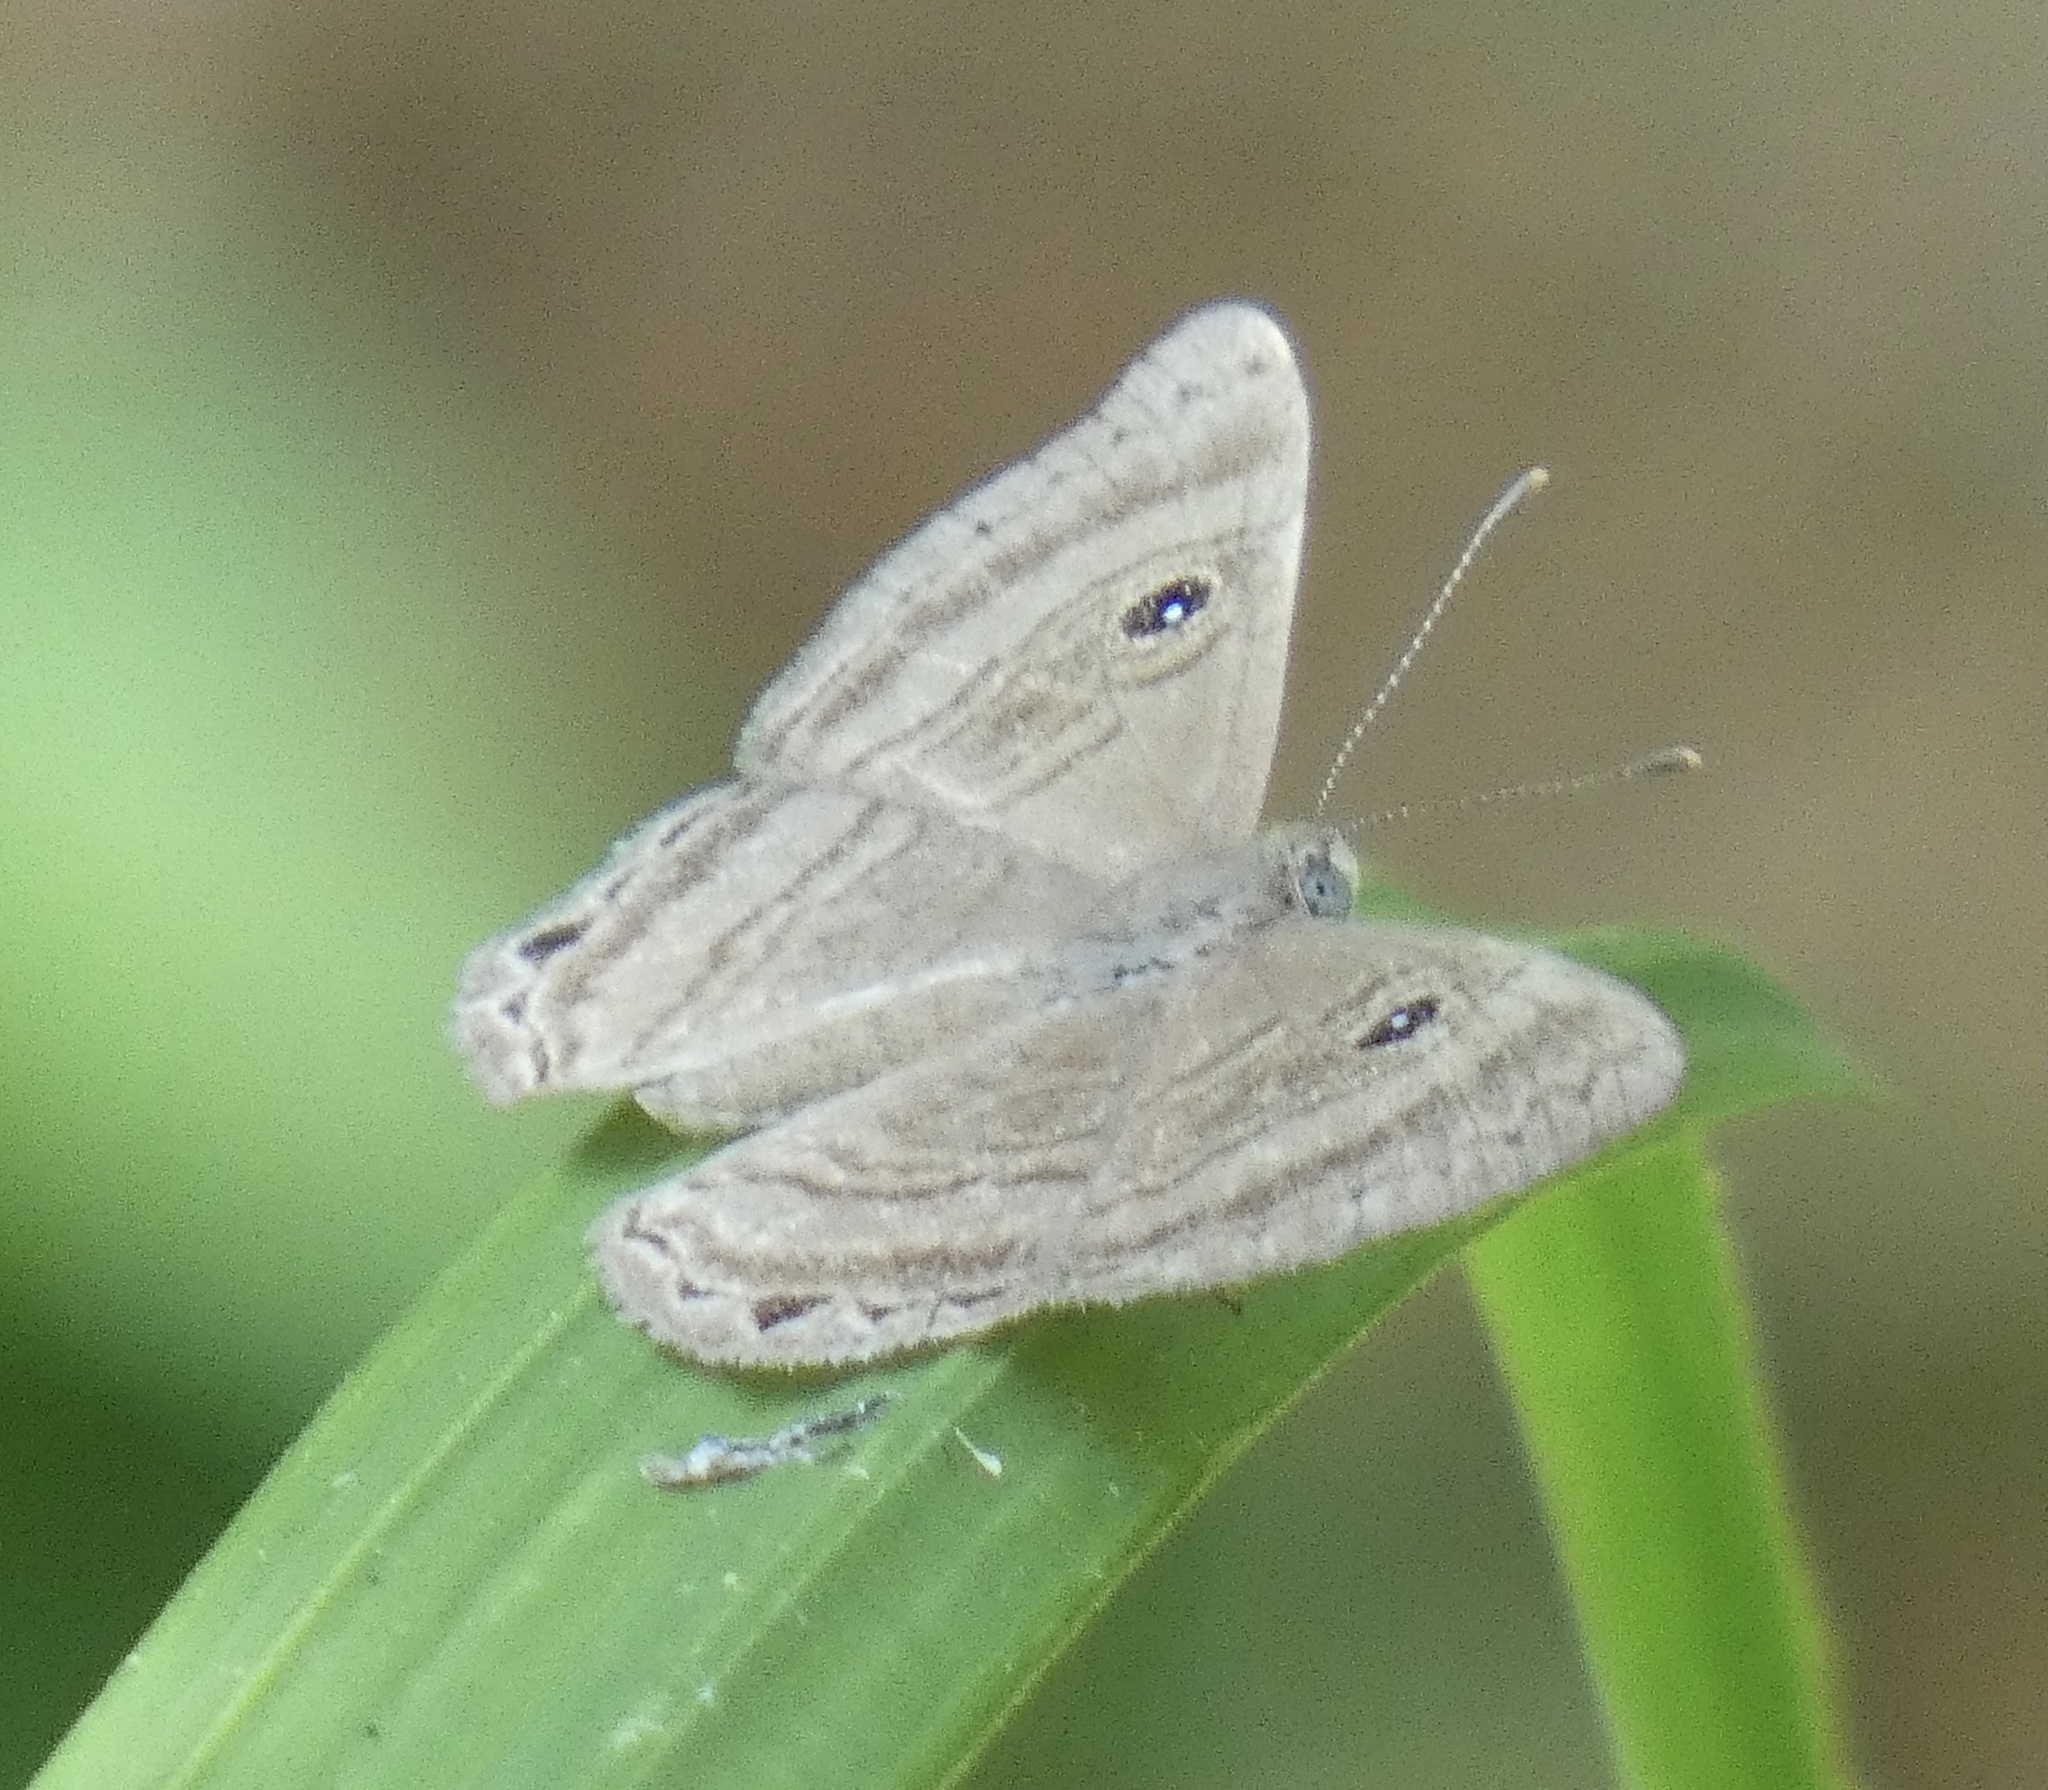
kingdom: Animalia
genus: Mesosemia
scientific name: Mesosemia odice
